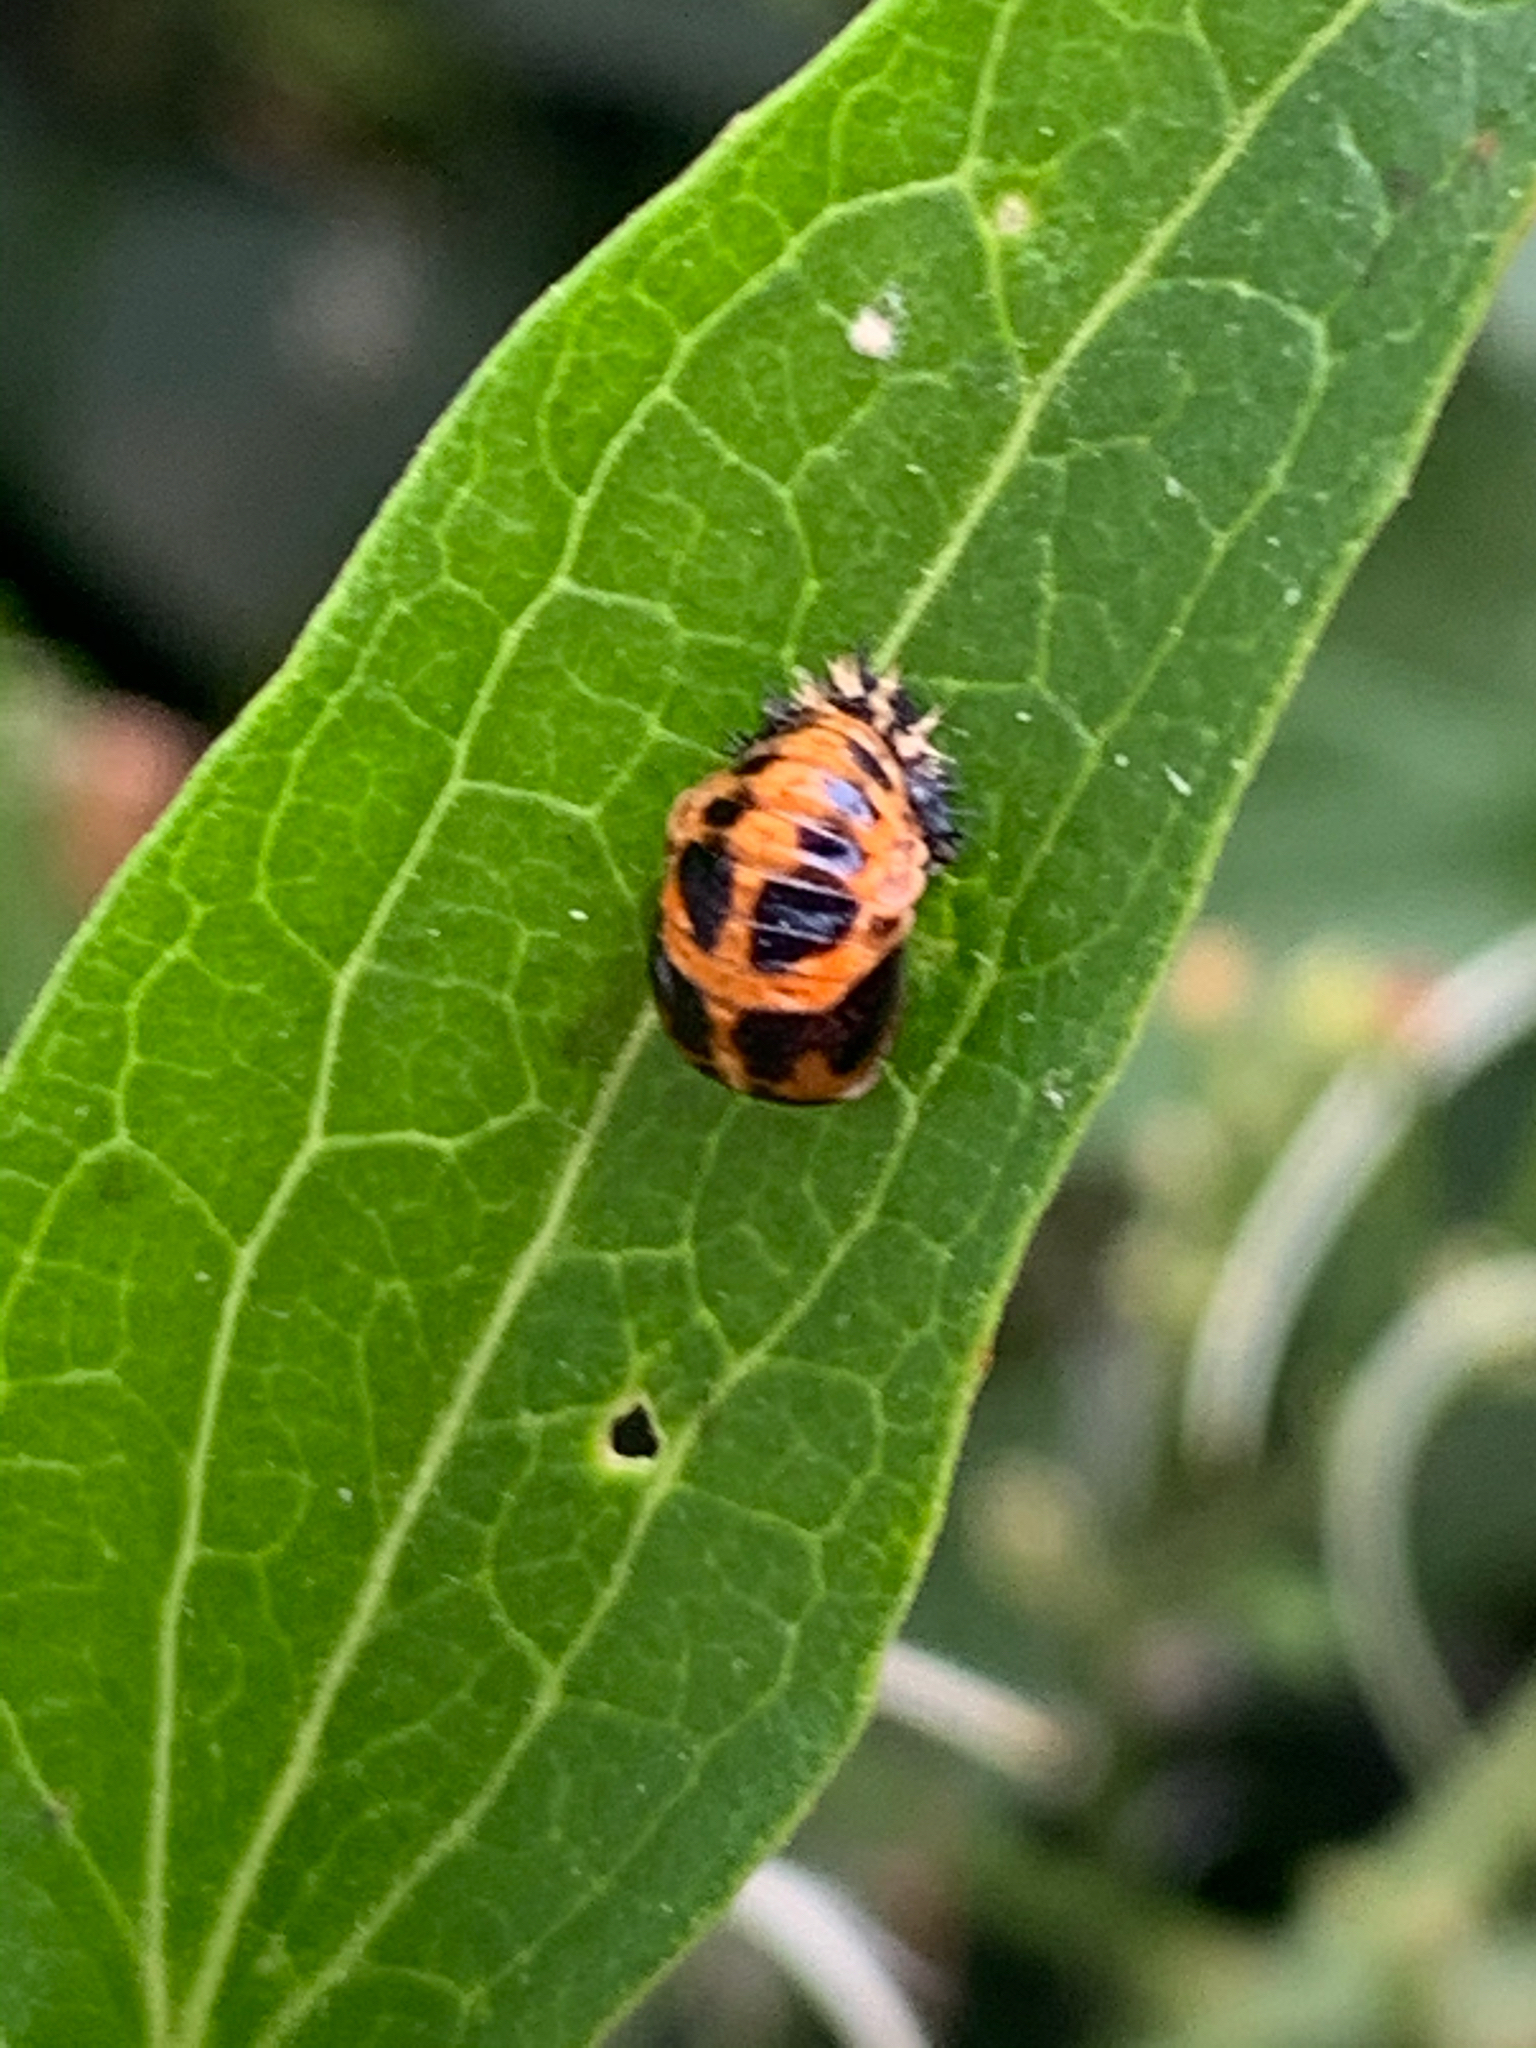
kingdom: Animalia
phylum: Arthropoda
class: Insecta
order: Coleoptera
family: Coccinellidae
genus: Harmonia
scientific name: Harmonia axyridis
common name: Harlequin ladybird
